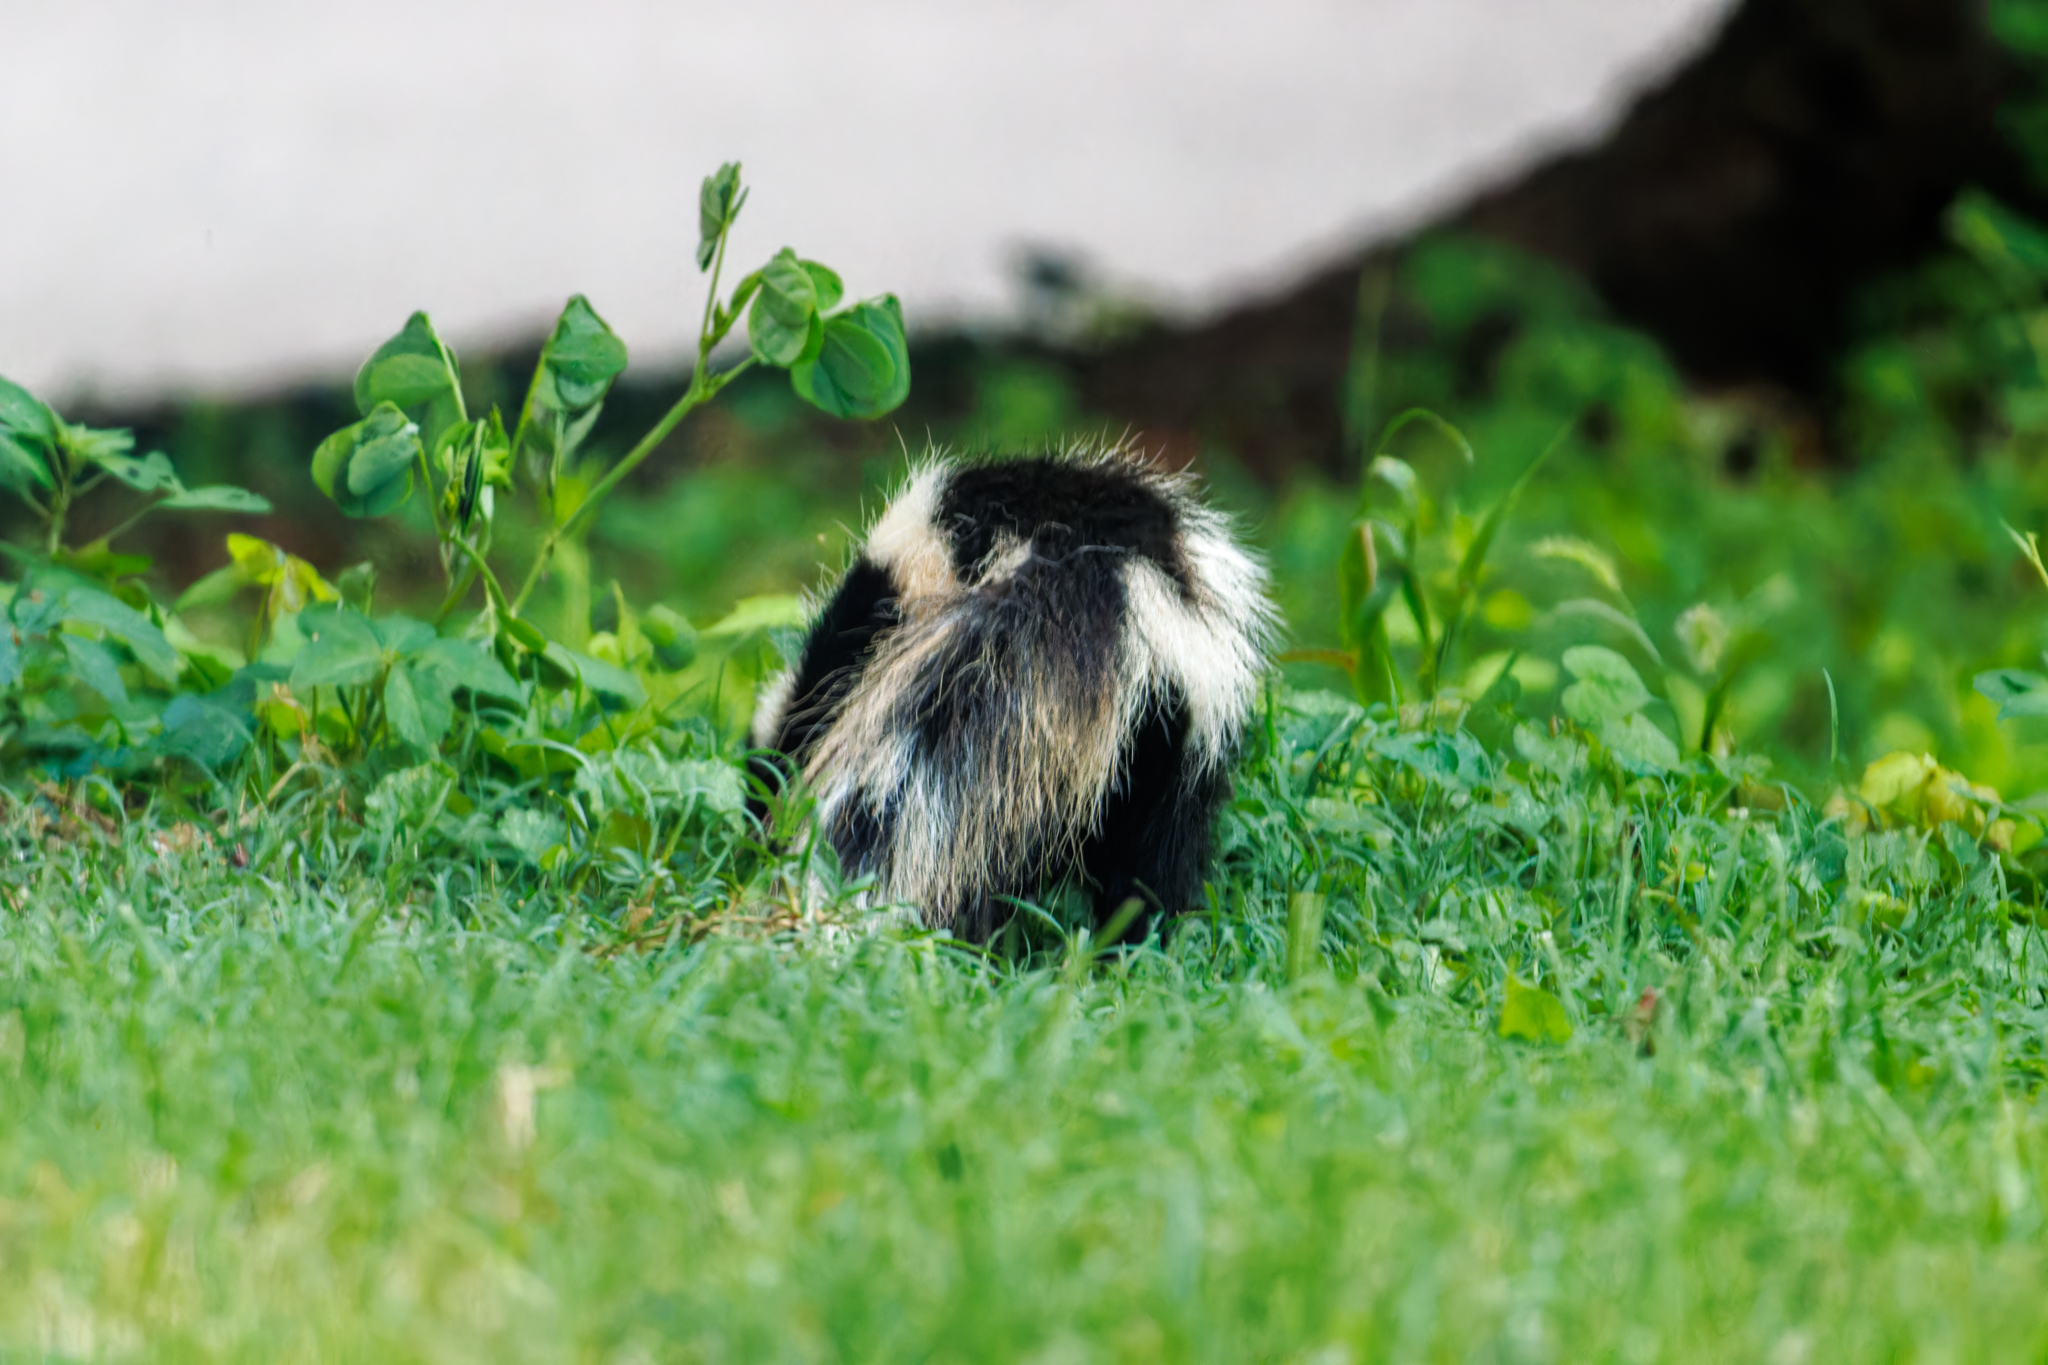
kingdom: Animalia
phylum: Chordata
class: Mammalia
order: Carnivora
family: Mephitidae
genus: Mephitis
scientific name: Mephitis mephitis
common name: Striped skunk
